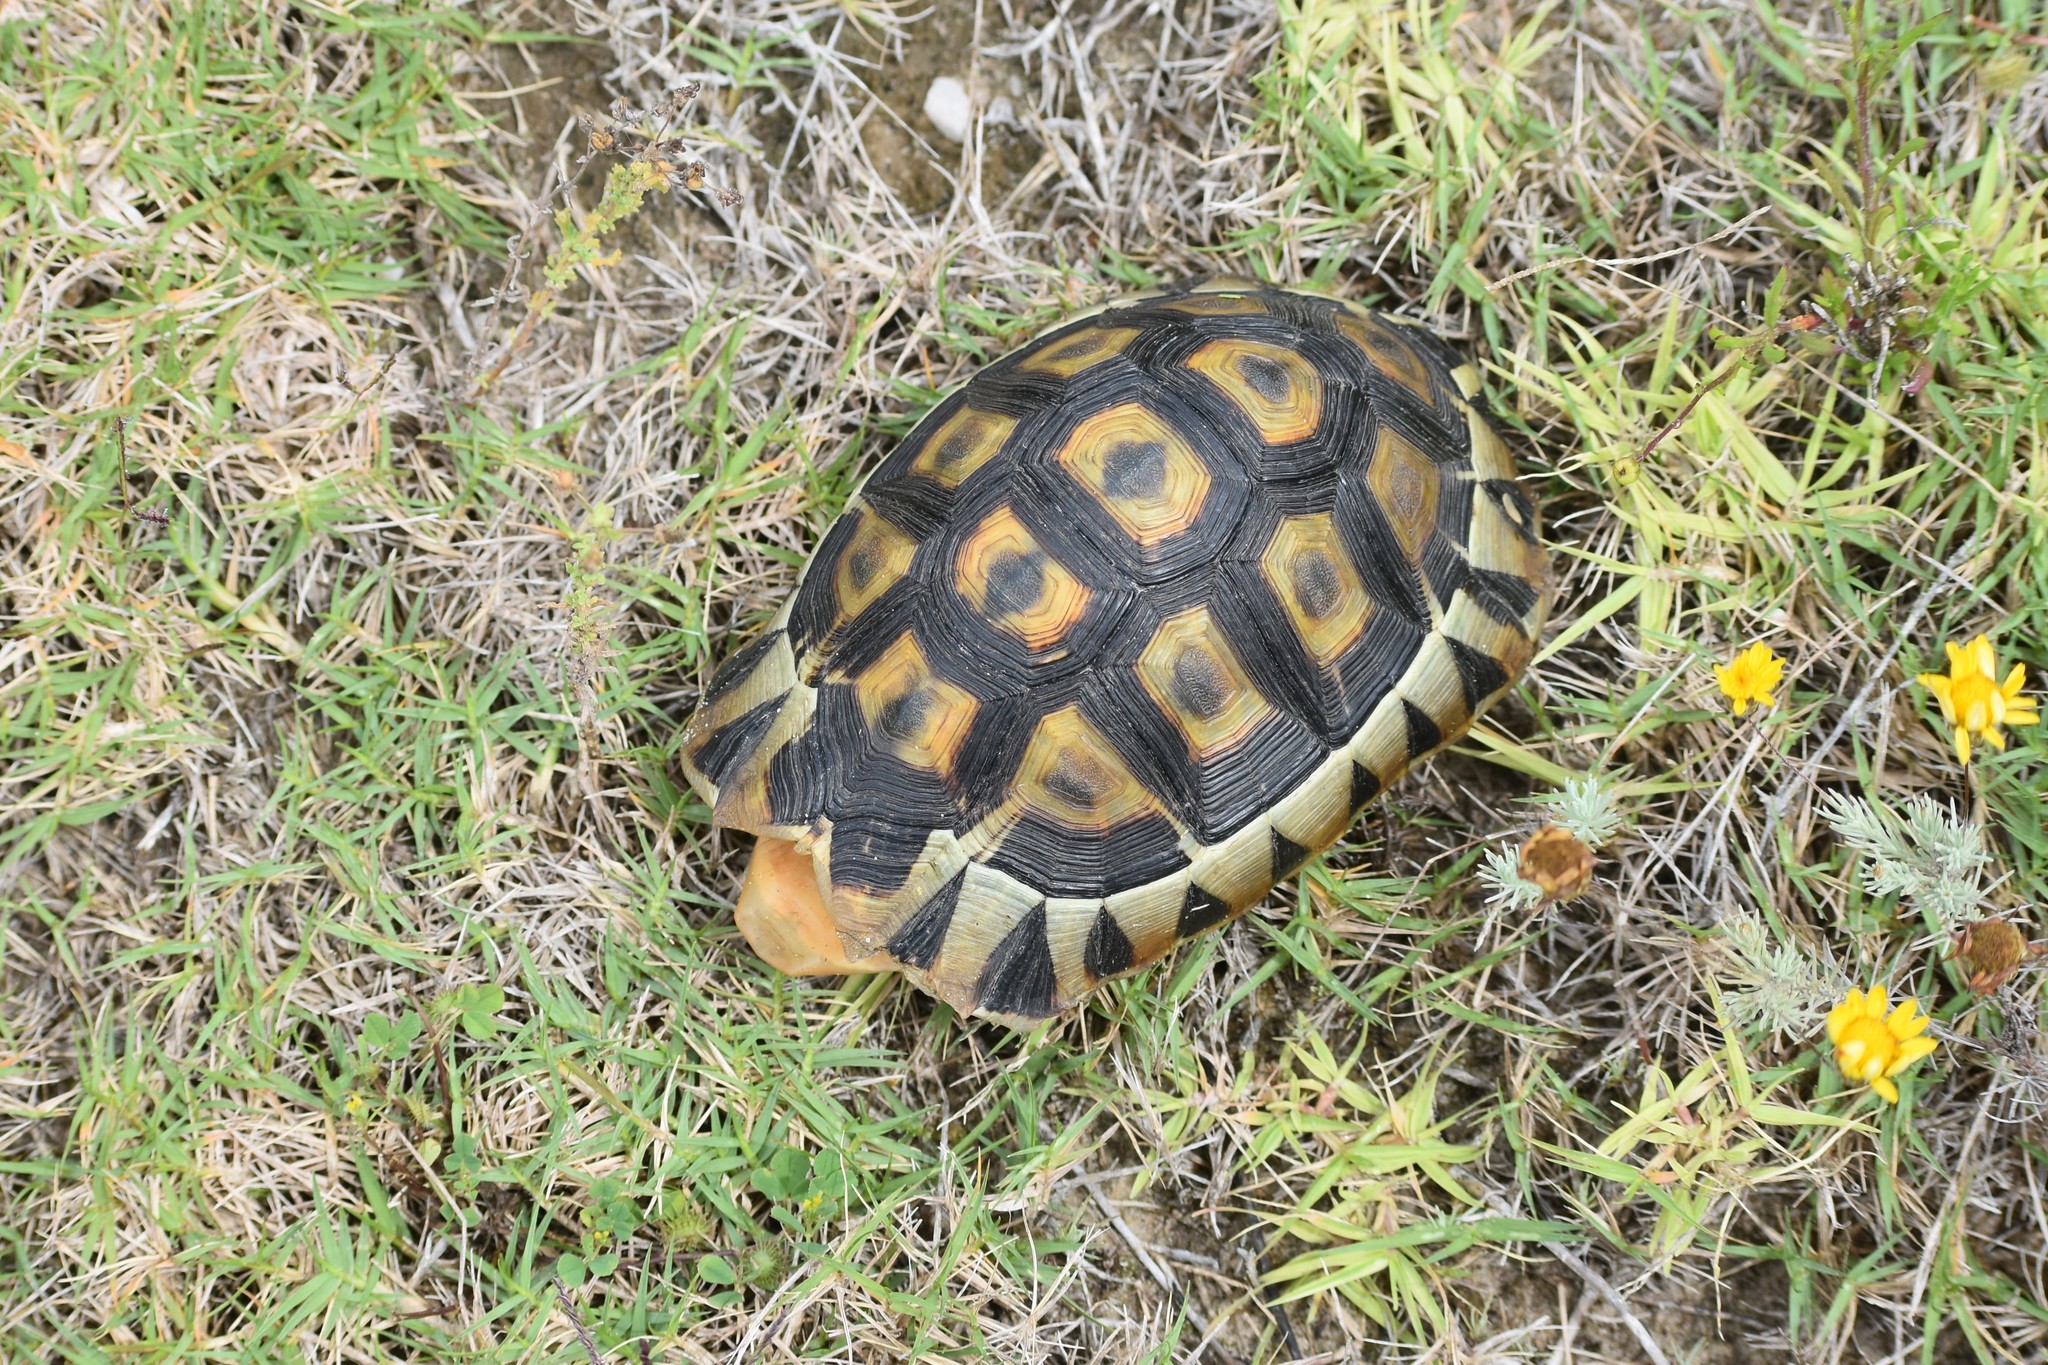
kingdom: Animalia
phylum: Chordata
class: Testudines
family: Testudinidae
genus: Chersina
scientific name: Chersina angulata
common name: South african bowsprit tortoise
